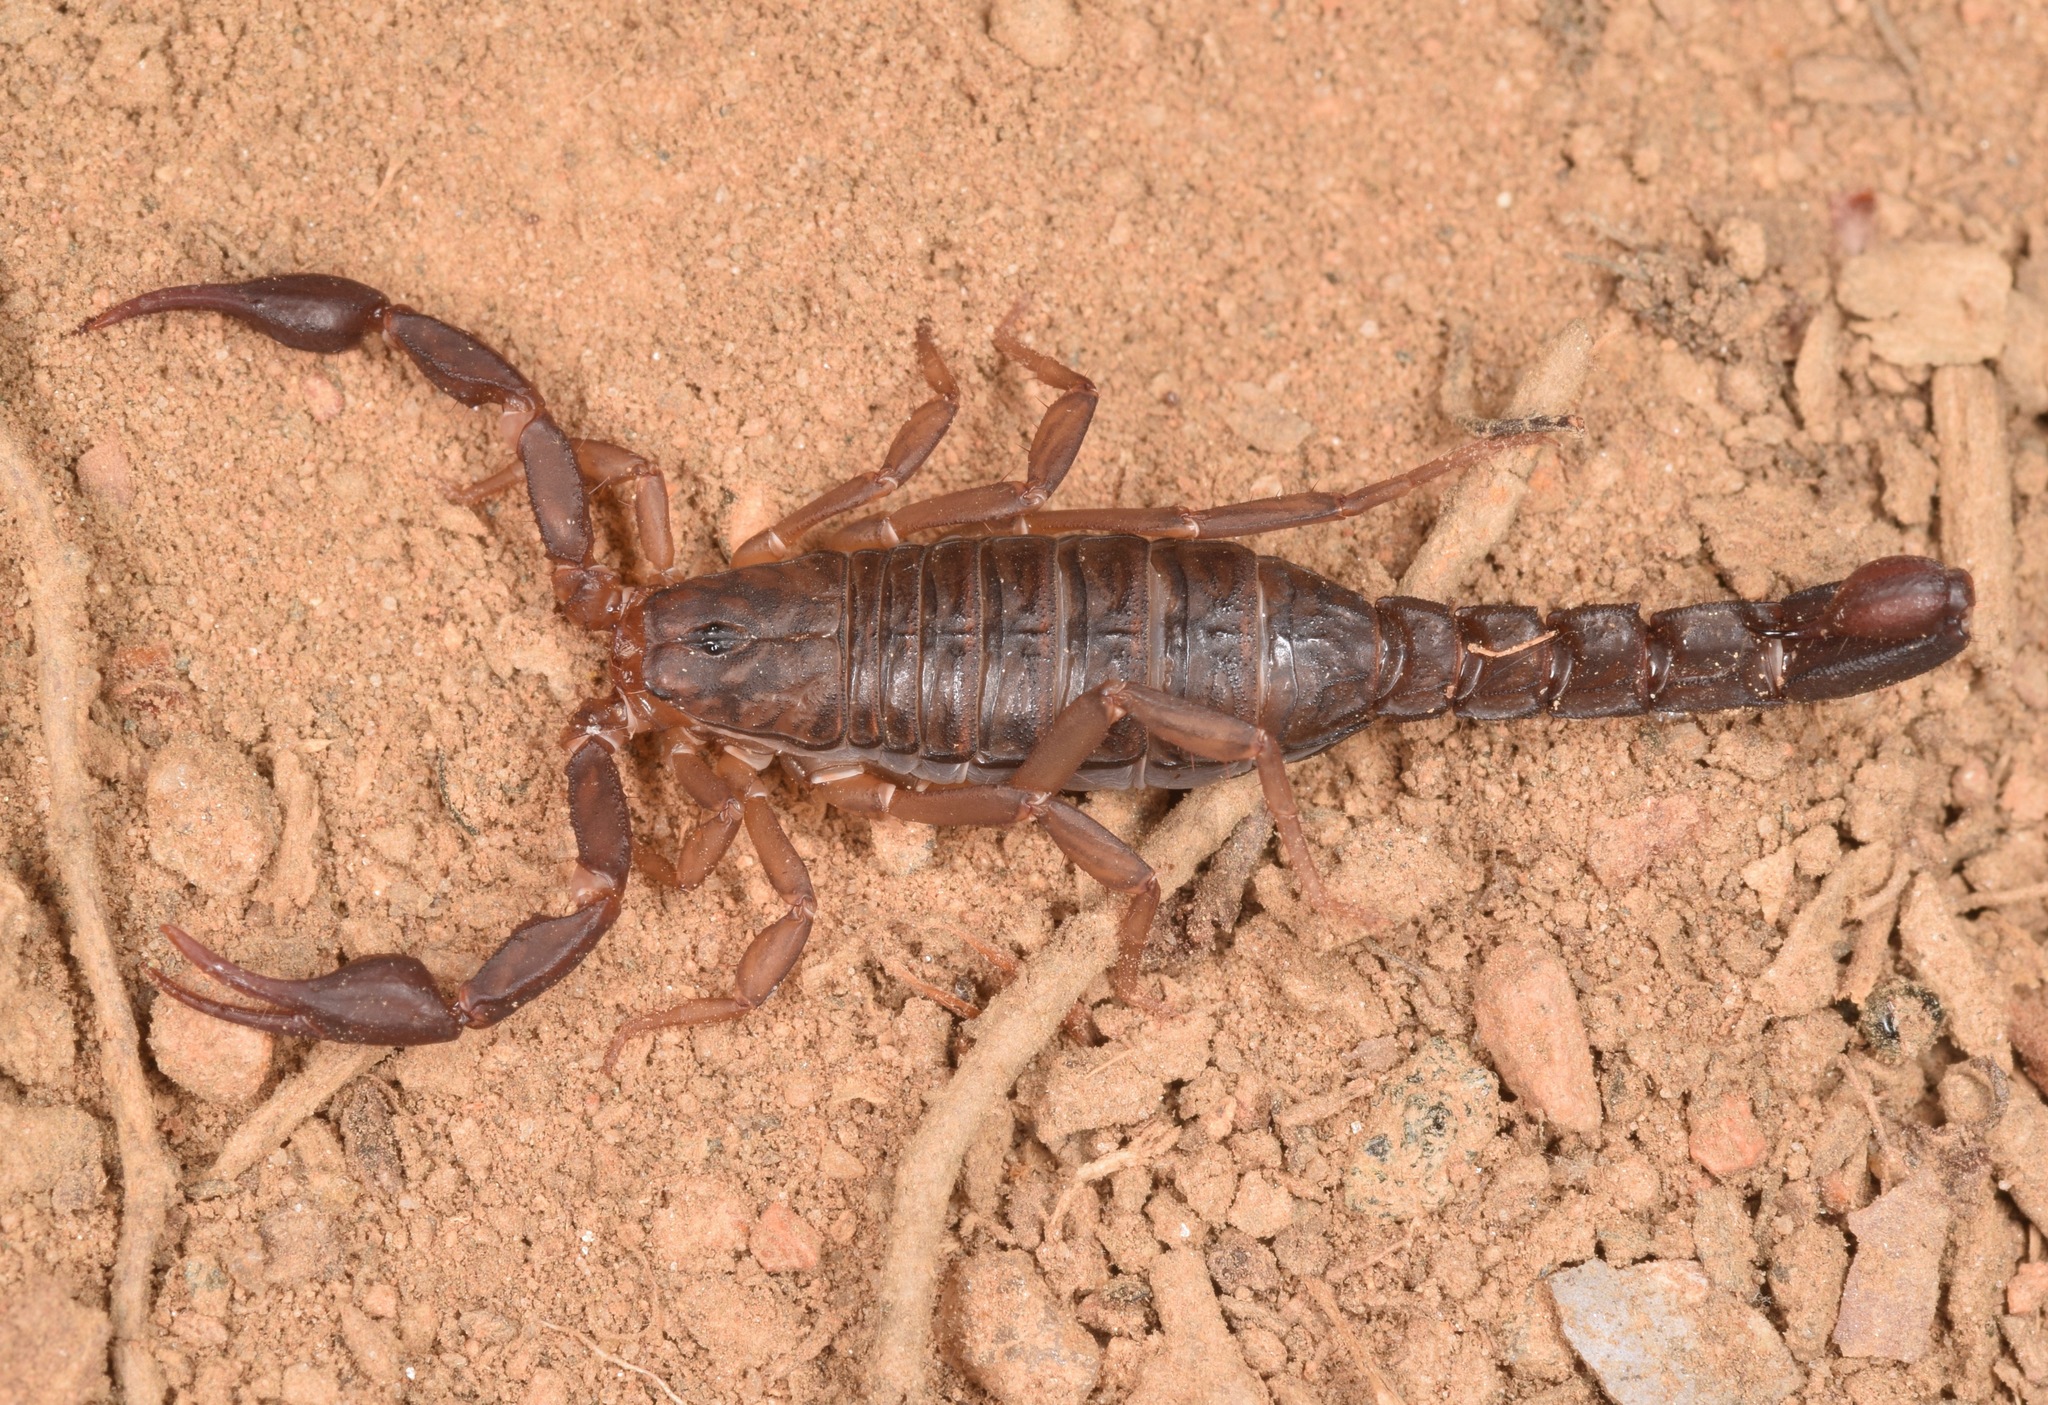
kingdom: Animalia
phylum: Arthropoda
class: Arachnida
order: Scorpiones
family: Vaejovidae
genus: Vaejovis
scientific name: Vaejovis carolinianus
